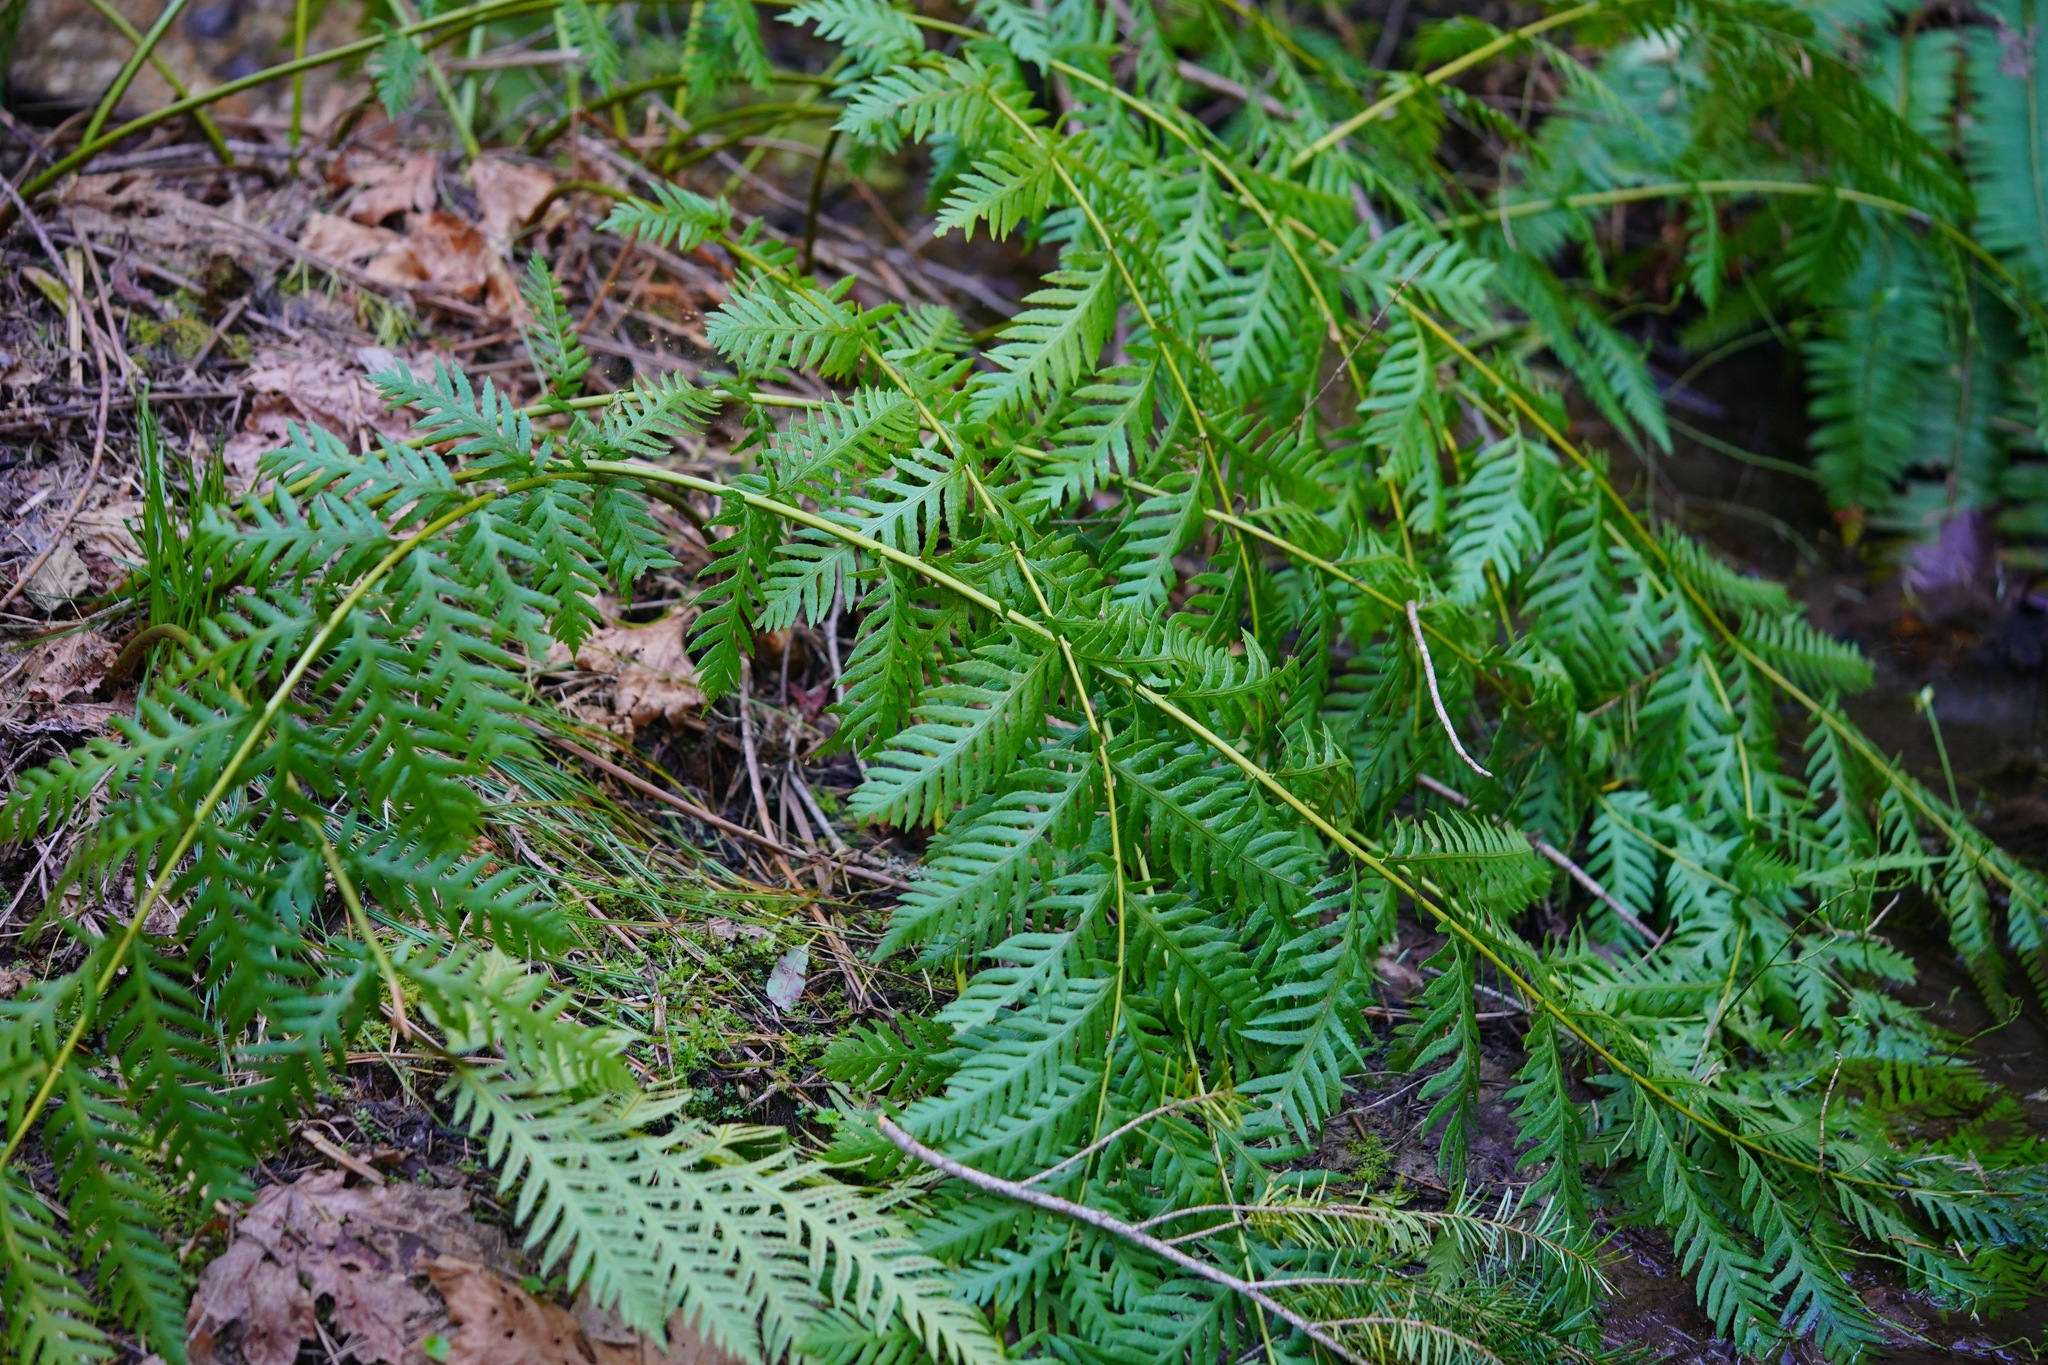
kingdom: Plantae
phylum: Tracheophyta
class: Polypodiopsida
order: Polypodiales
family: Blechnaceae
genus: Woodwardia
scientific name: Woodwardia fimbriata
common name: Giant chain fern
